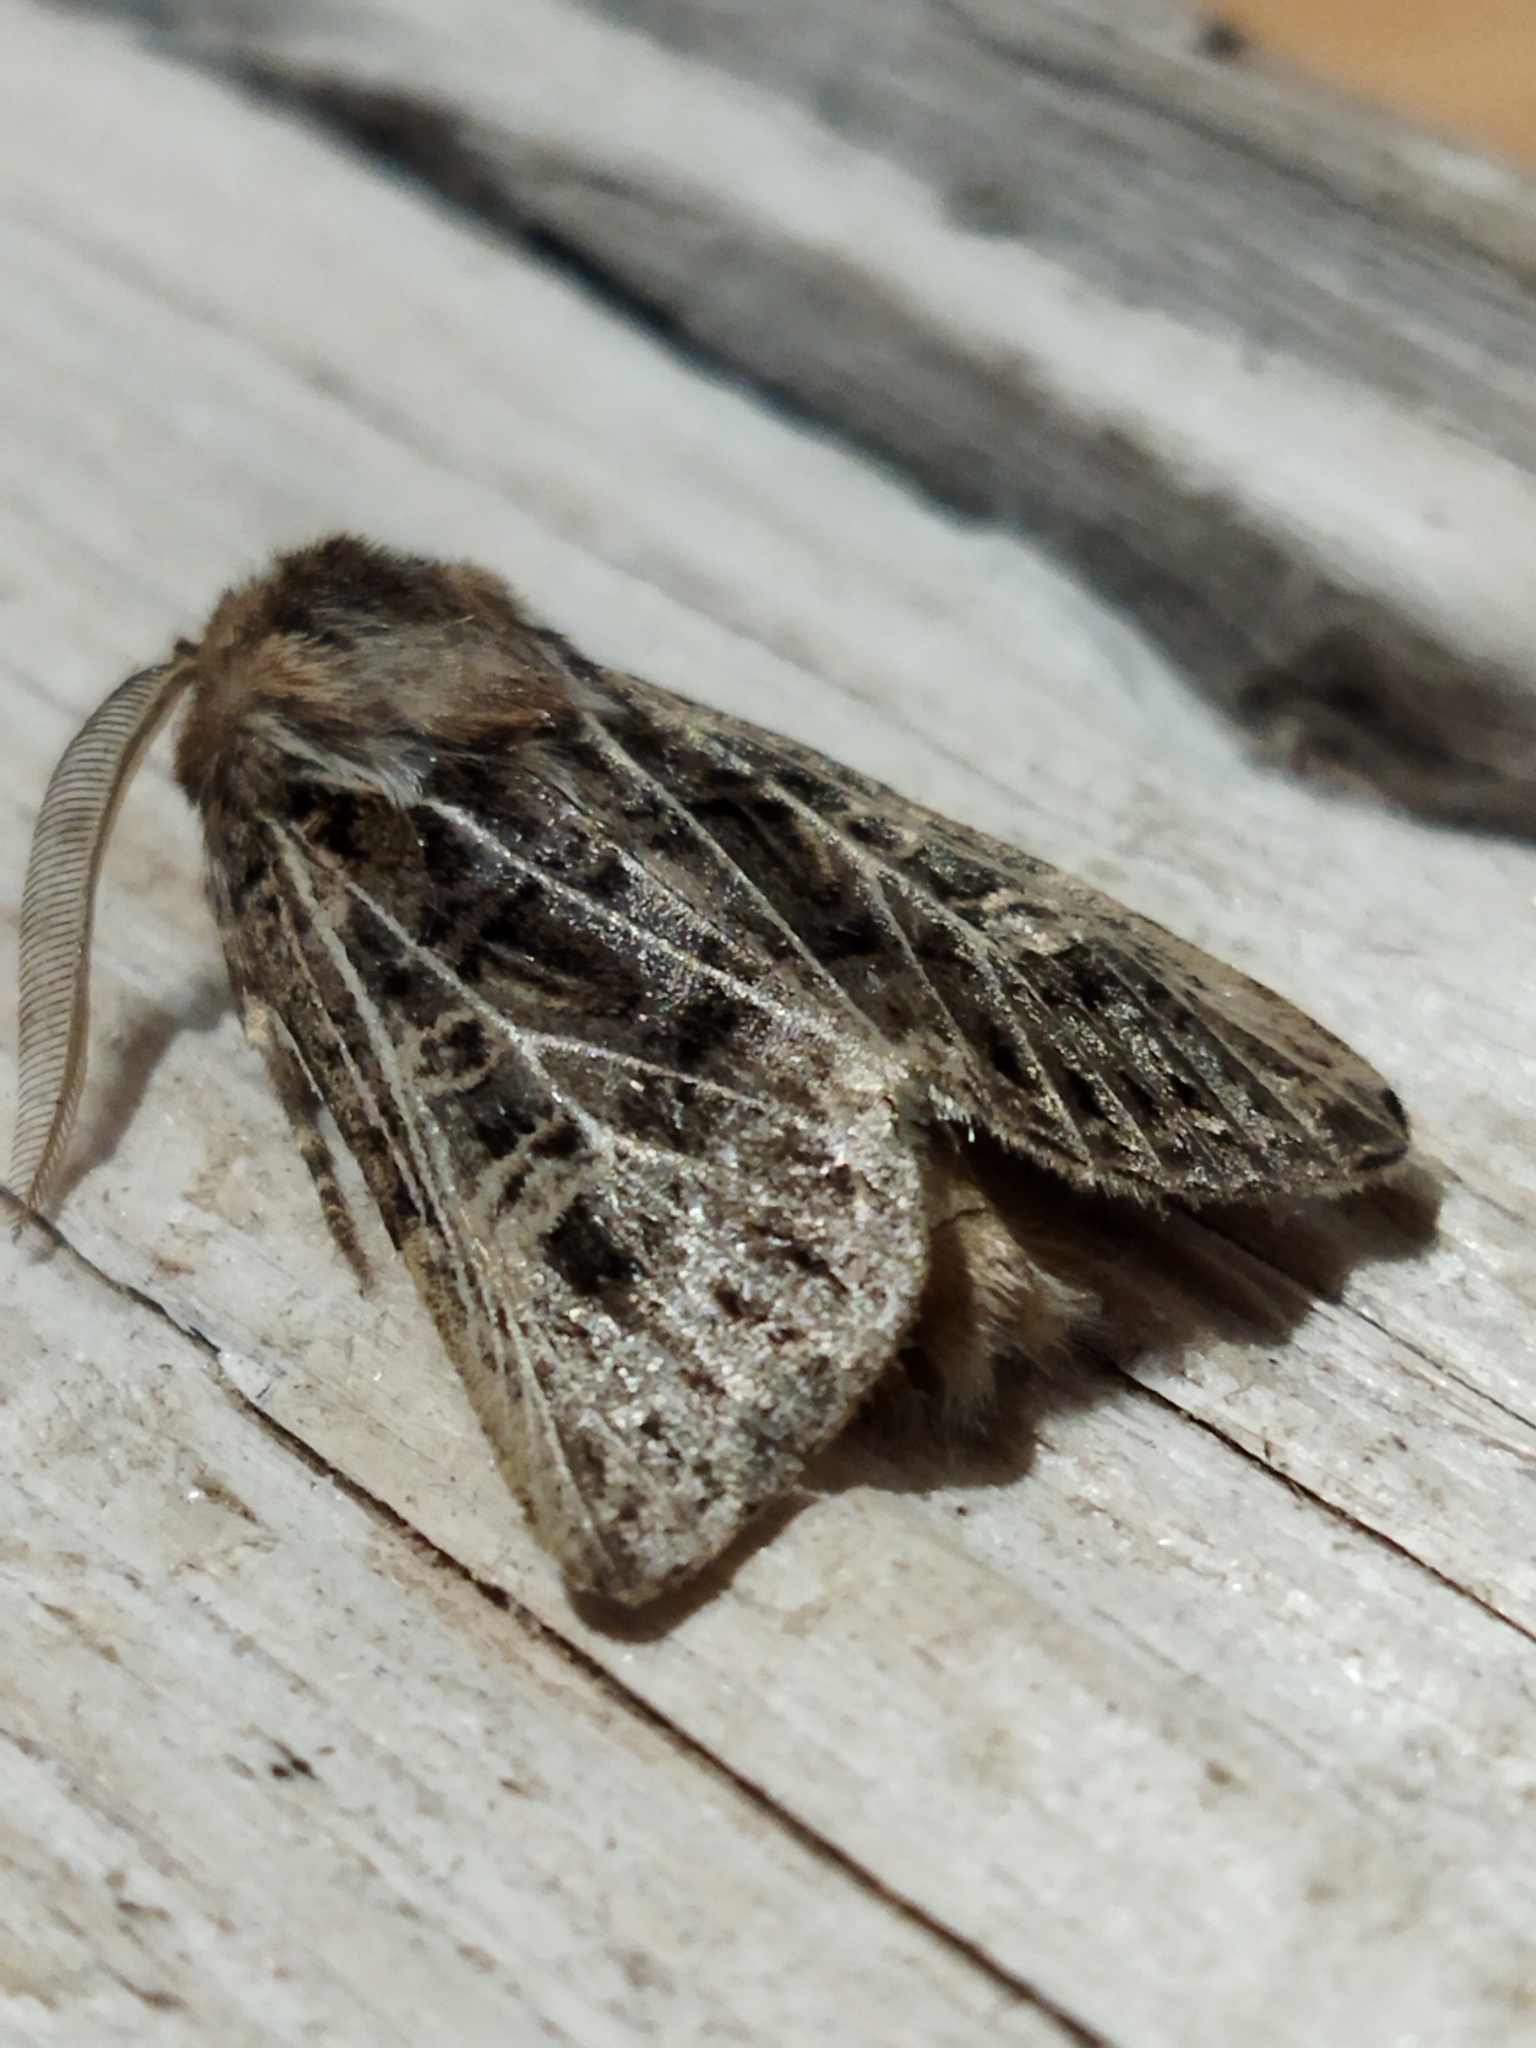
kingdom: Animalia
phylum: Arthropoda
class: Insecta
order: Lepidoptera
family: Noctuidae
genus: Tholera
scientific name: Tholera decimalis
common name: Feathered gothic
